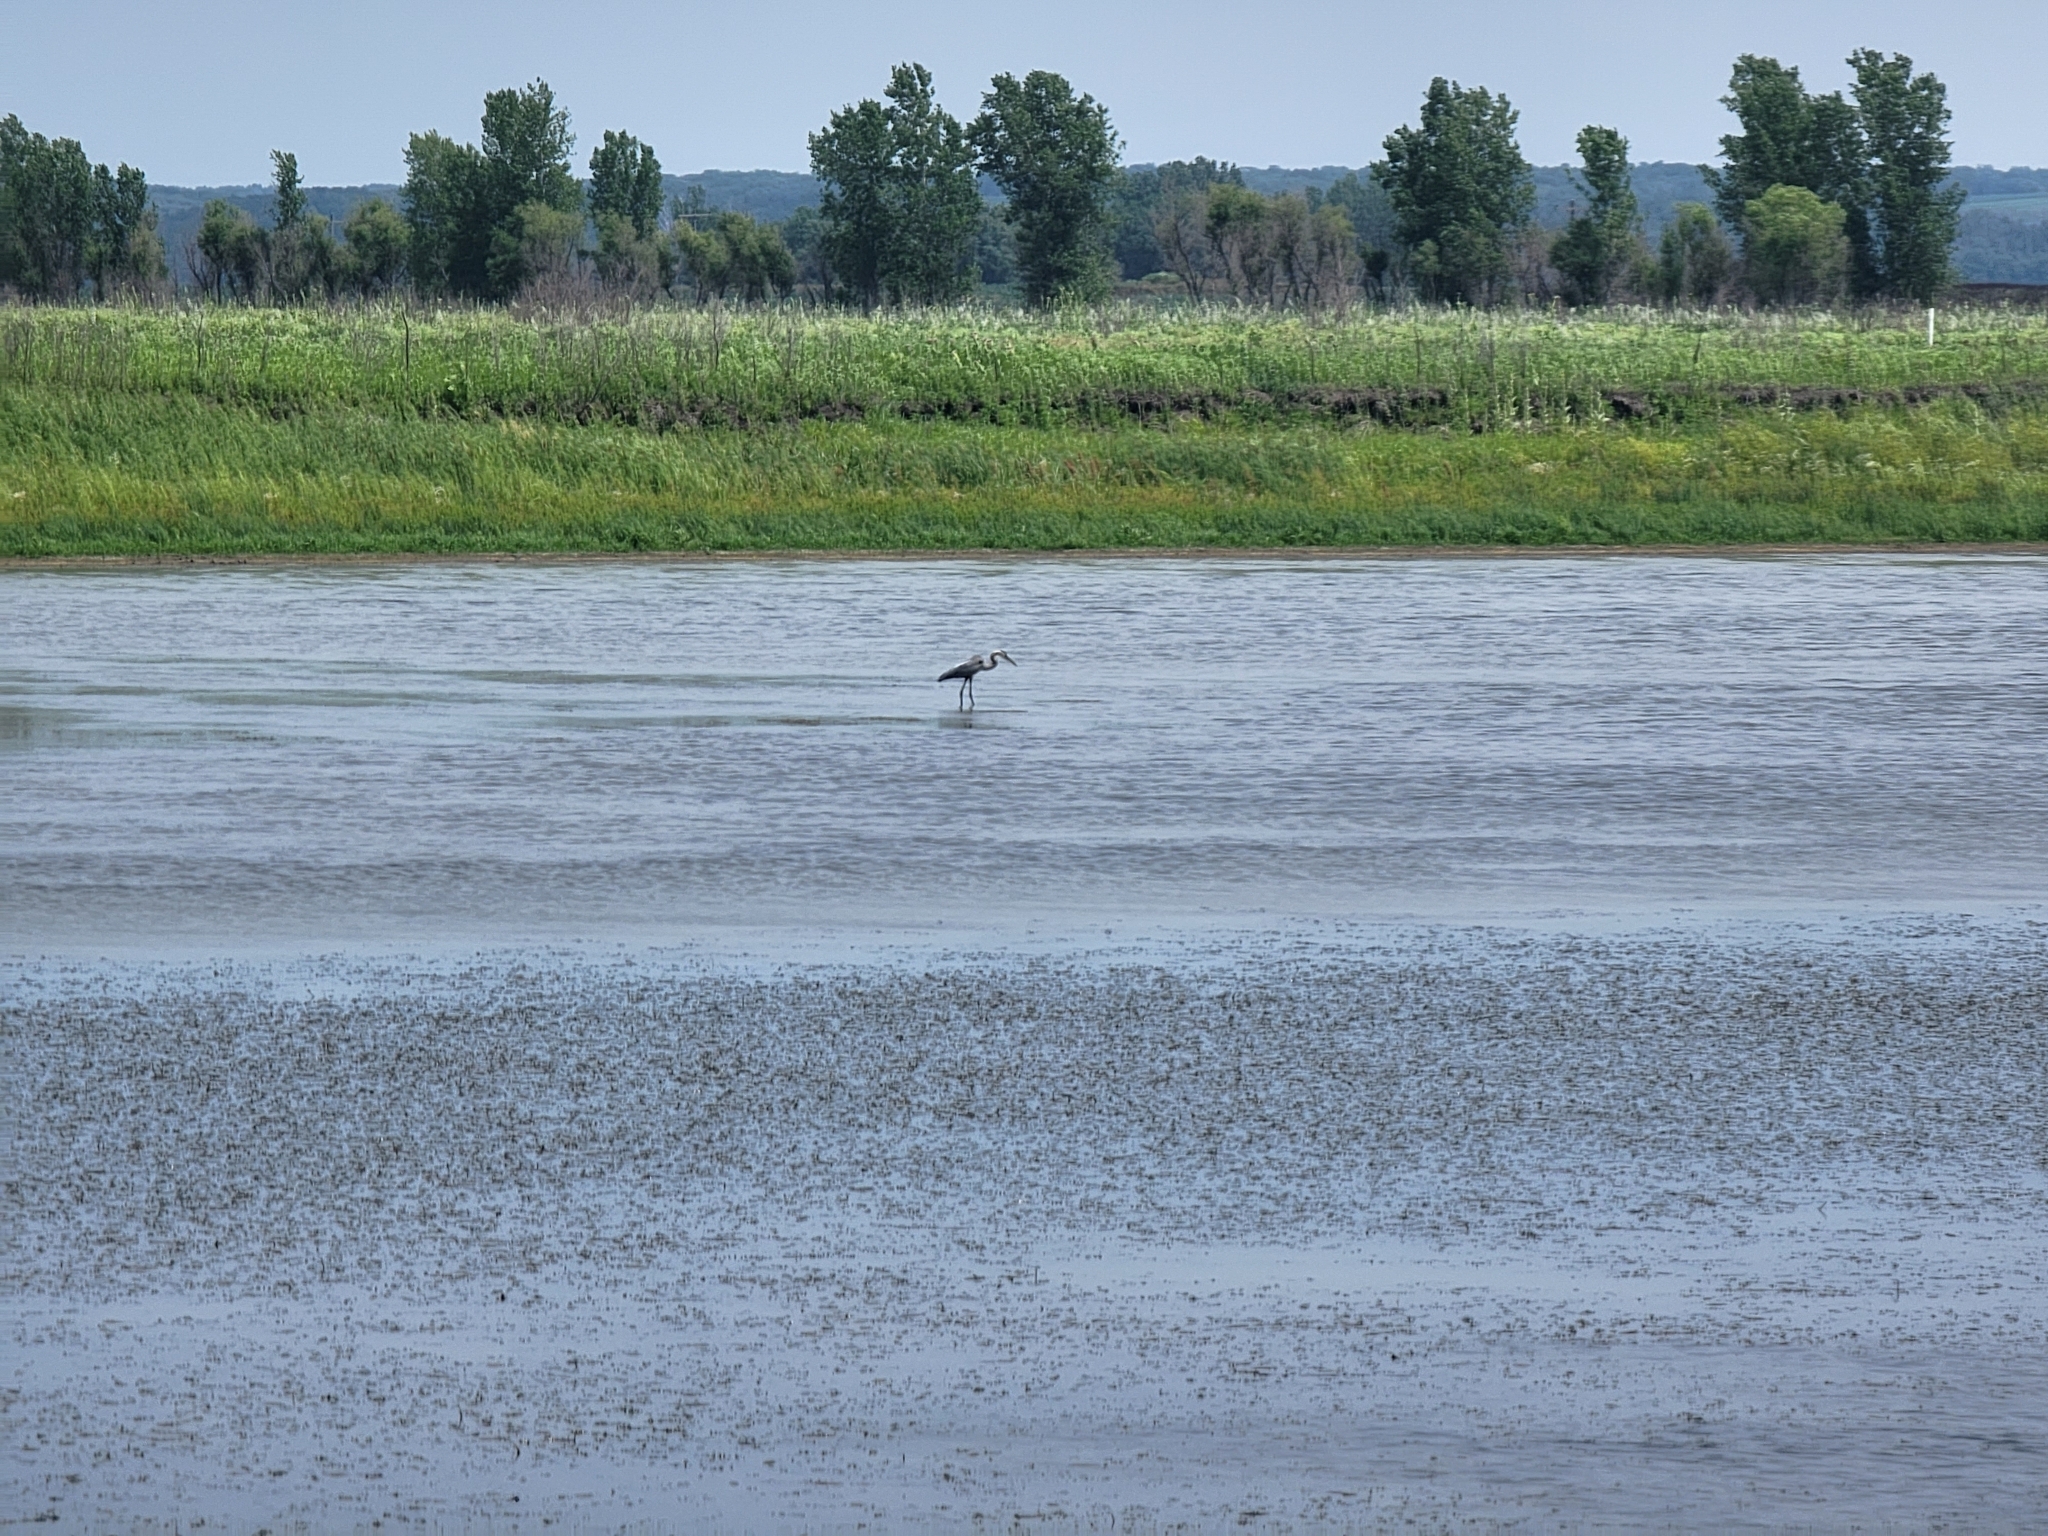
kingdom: Animalia
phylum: Chordata
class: Aves
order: Pelecaniformes
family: Ardeidae
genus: Ardea
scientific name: Ardea herodias
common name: Great blue heron
